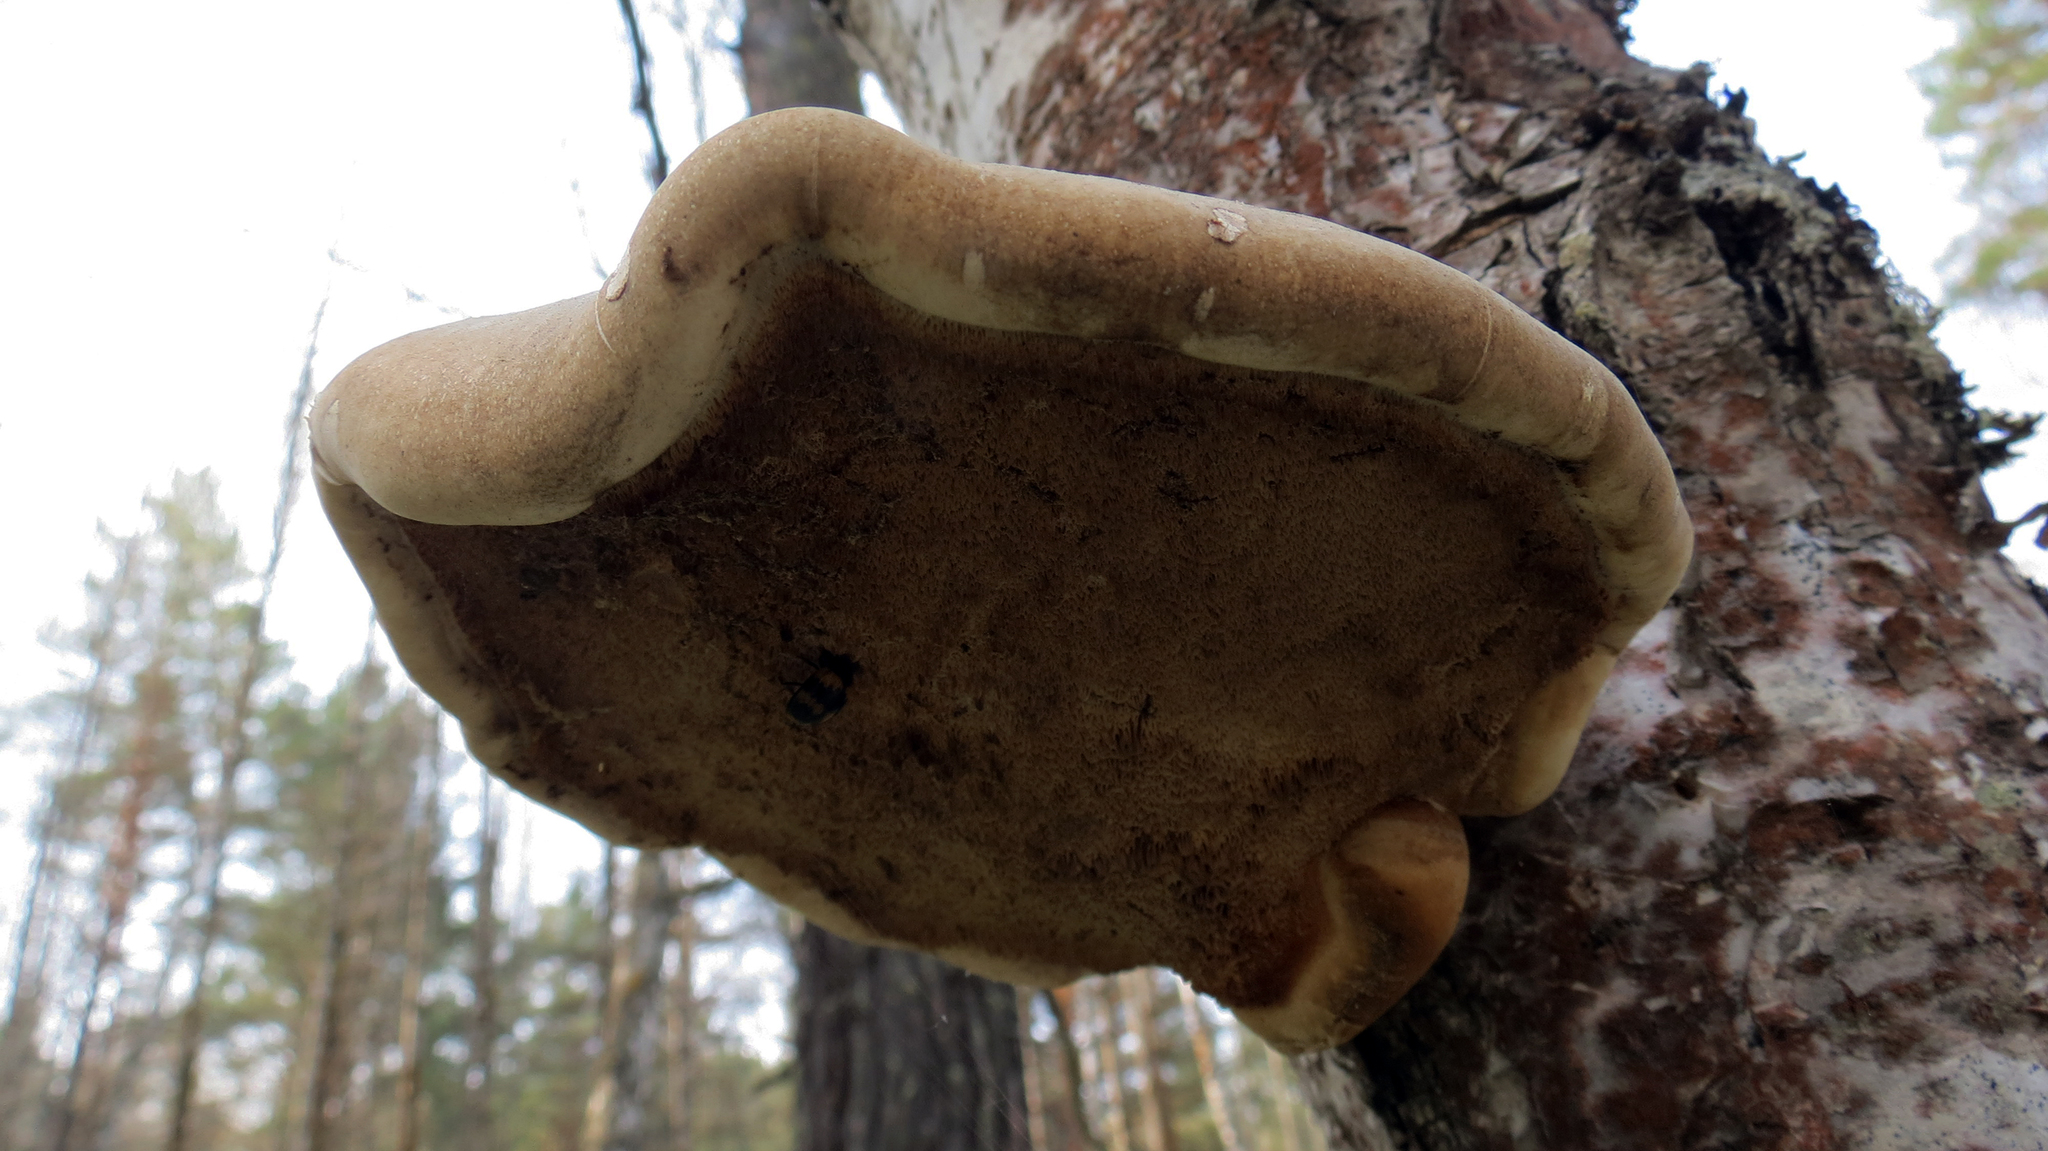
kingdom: Fungi
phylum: Basidiomycota
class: Agaricomycetes
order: Polyporales
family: Fomitopsidaceae
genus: Fomitopsis
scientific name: Fomitopsis betulina
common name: Birch polypore
